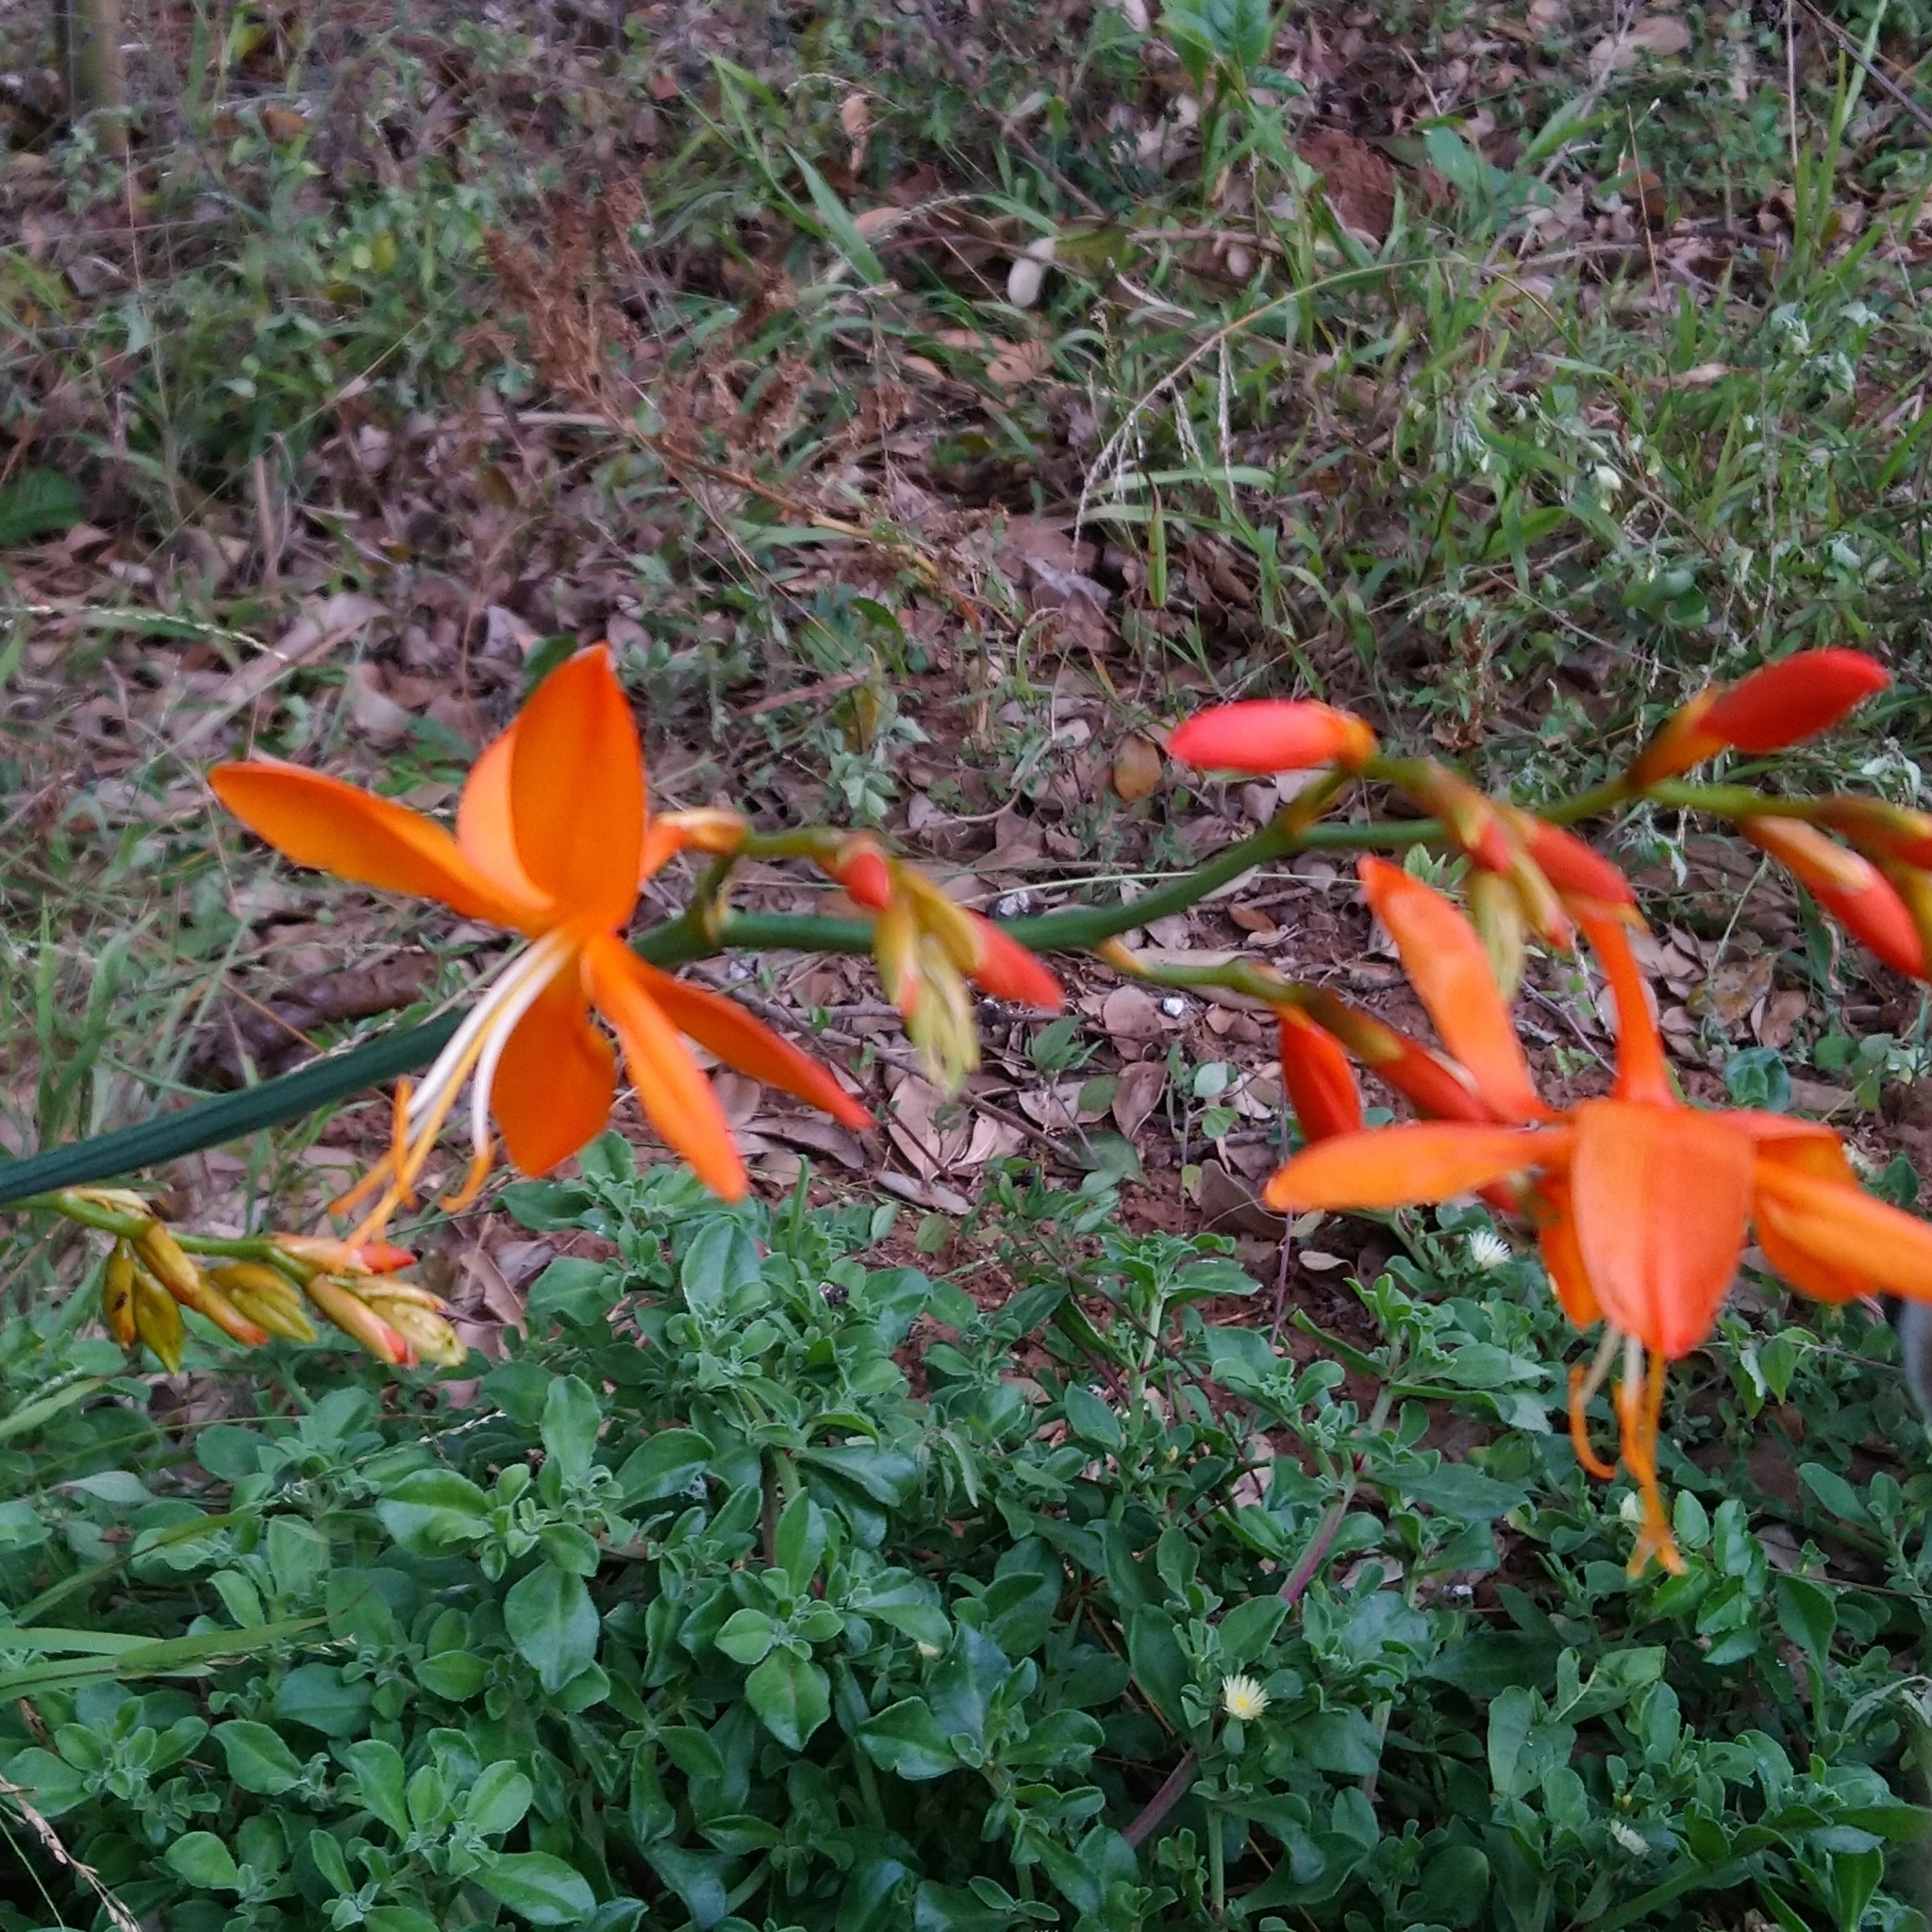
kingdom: Plantae
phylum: Tracheophyta
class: Liliopsida
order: Asparagales
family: Iridaceae
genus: Crocosmia
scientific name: Crocosmia aurea
